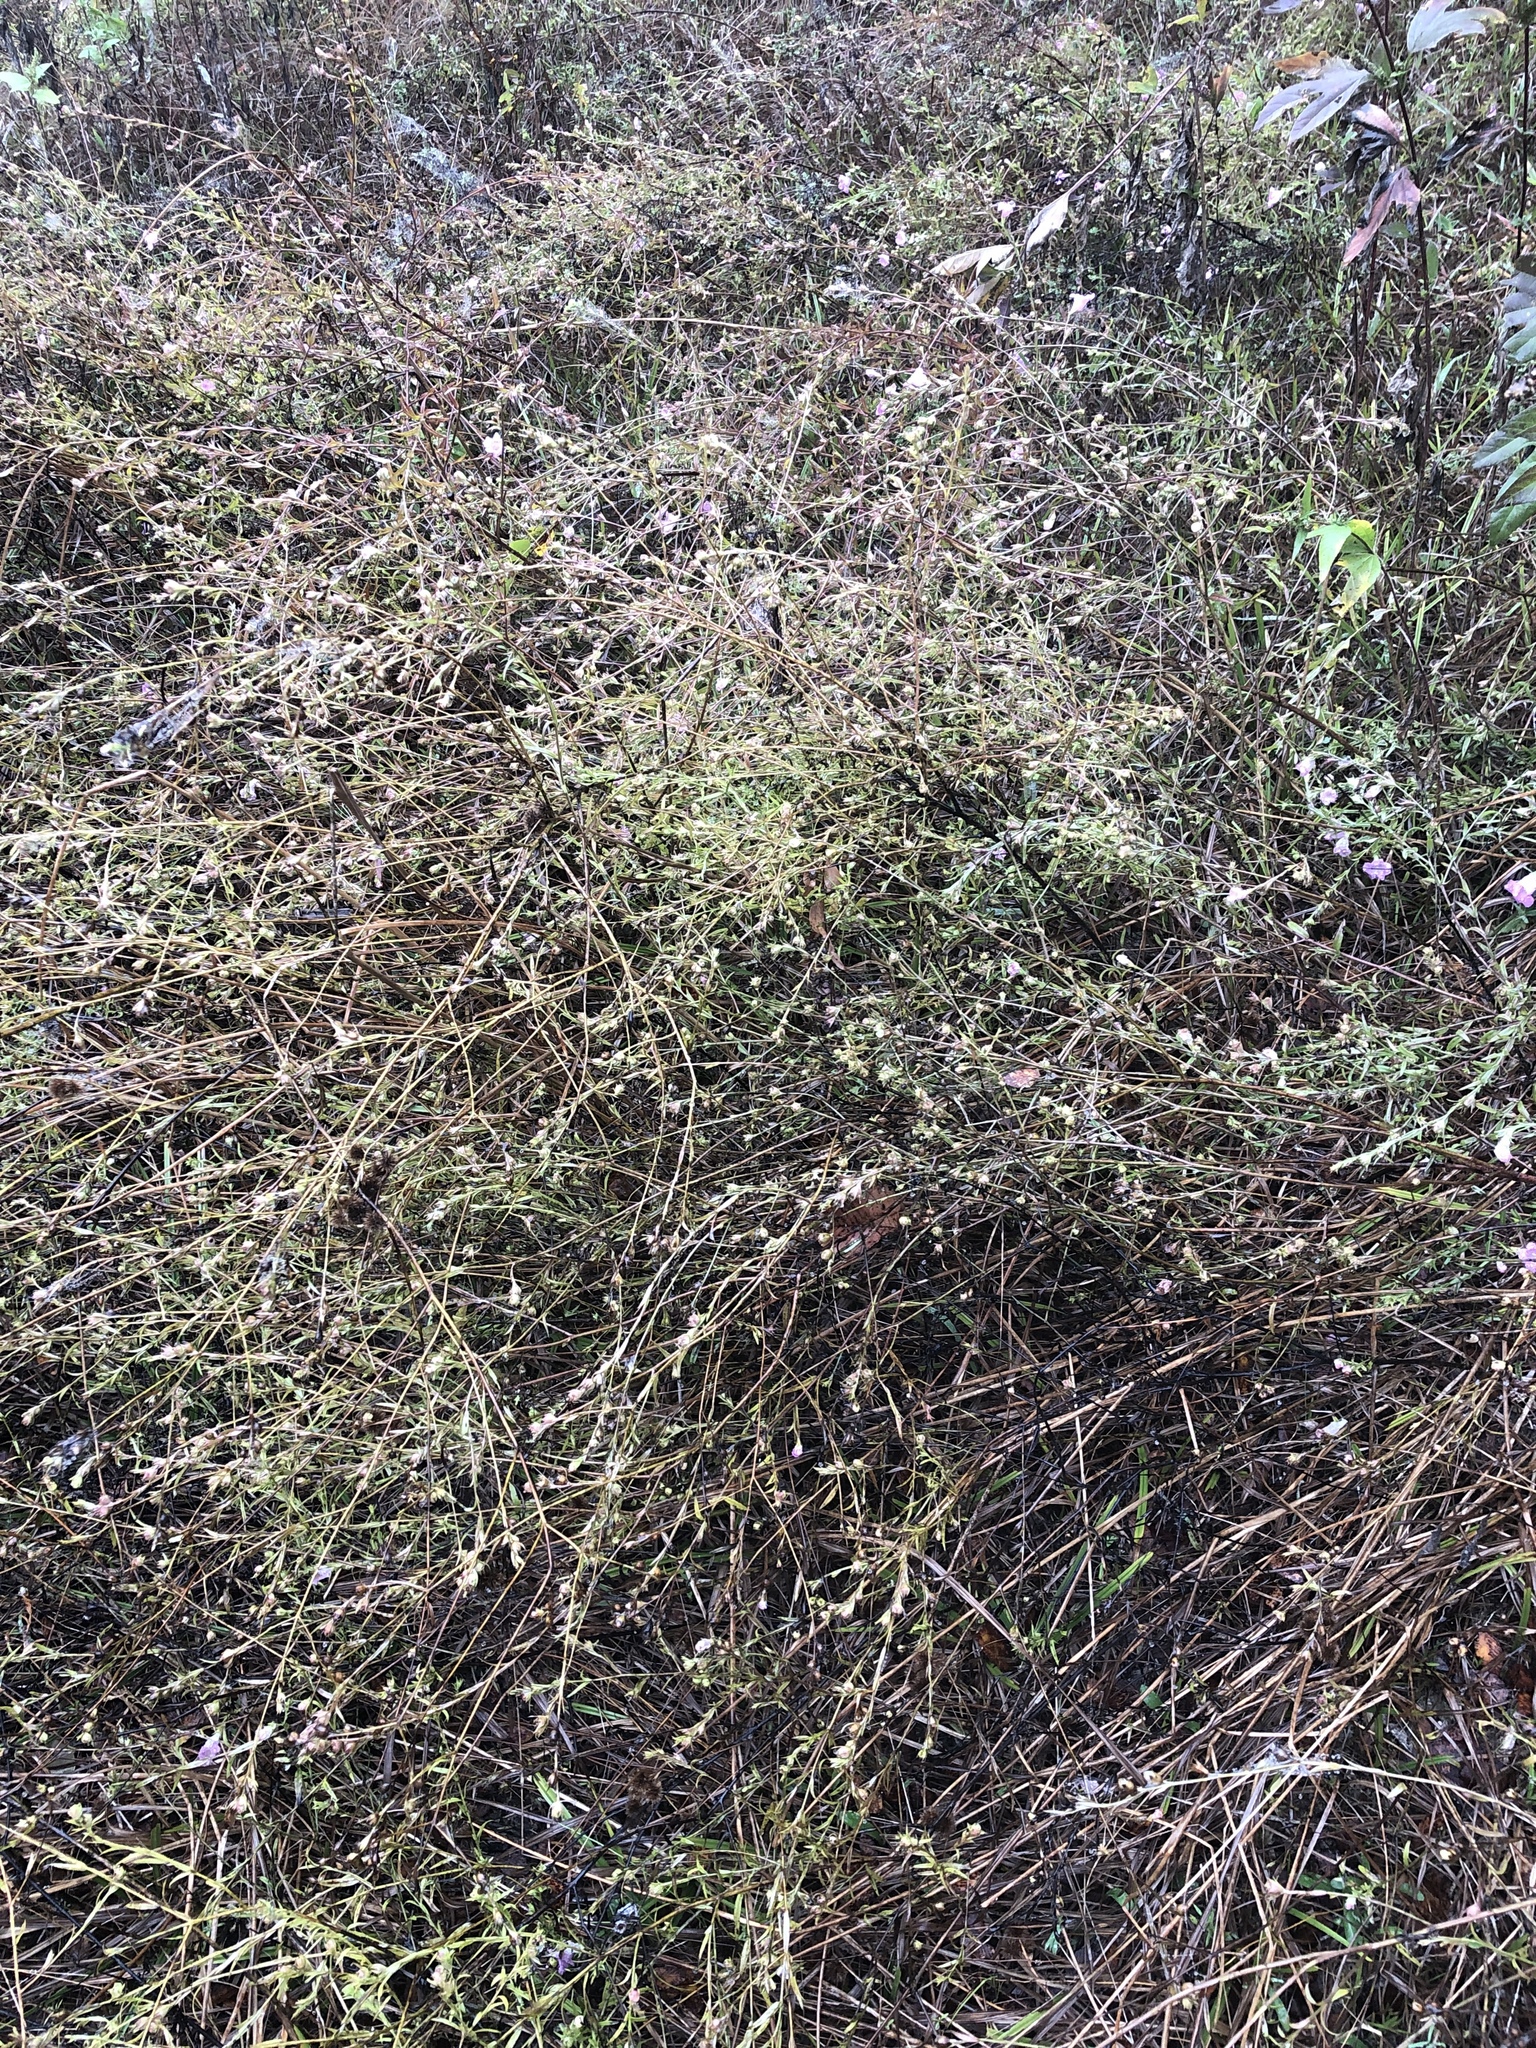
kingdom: Plantae
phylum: Tracheophyta
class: Magnoliopsida
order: Lamiales
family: Orobanchaceae
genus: Agalinis
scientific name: Agalinis heterophylla
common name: Prairie agalinis
